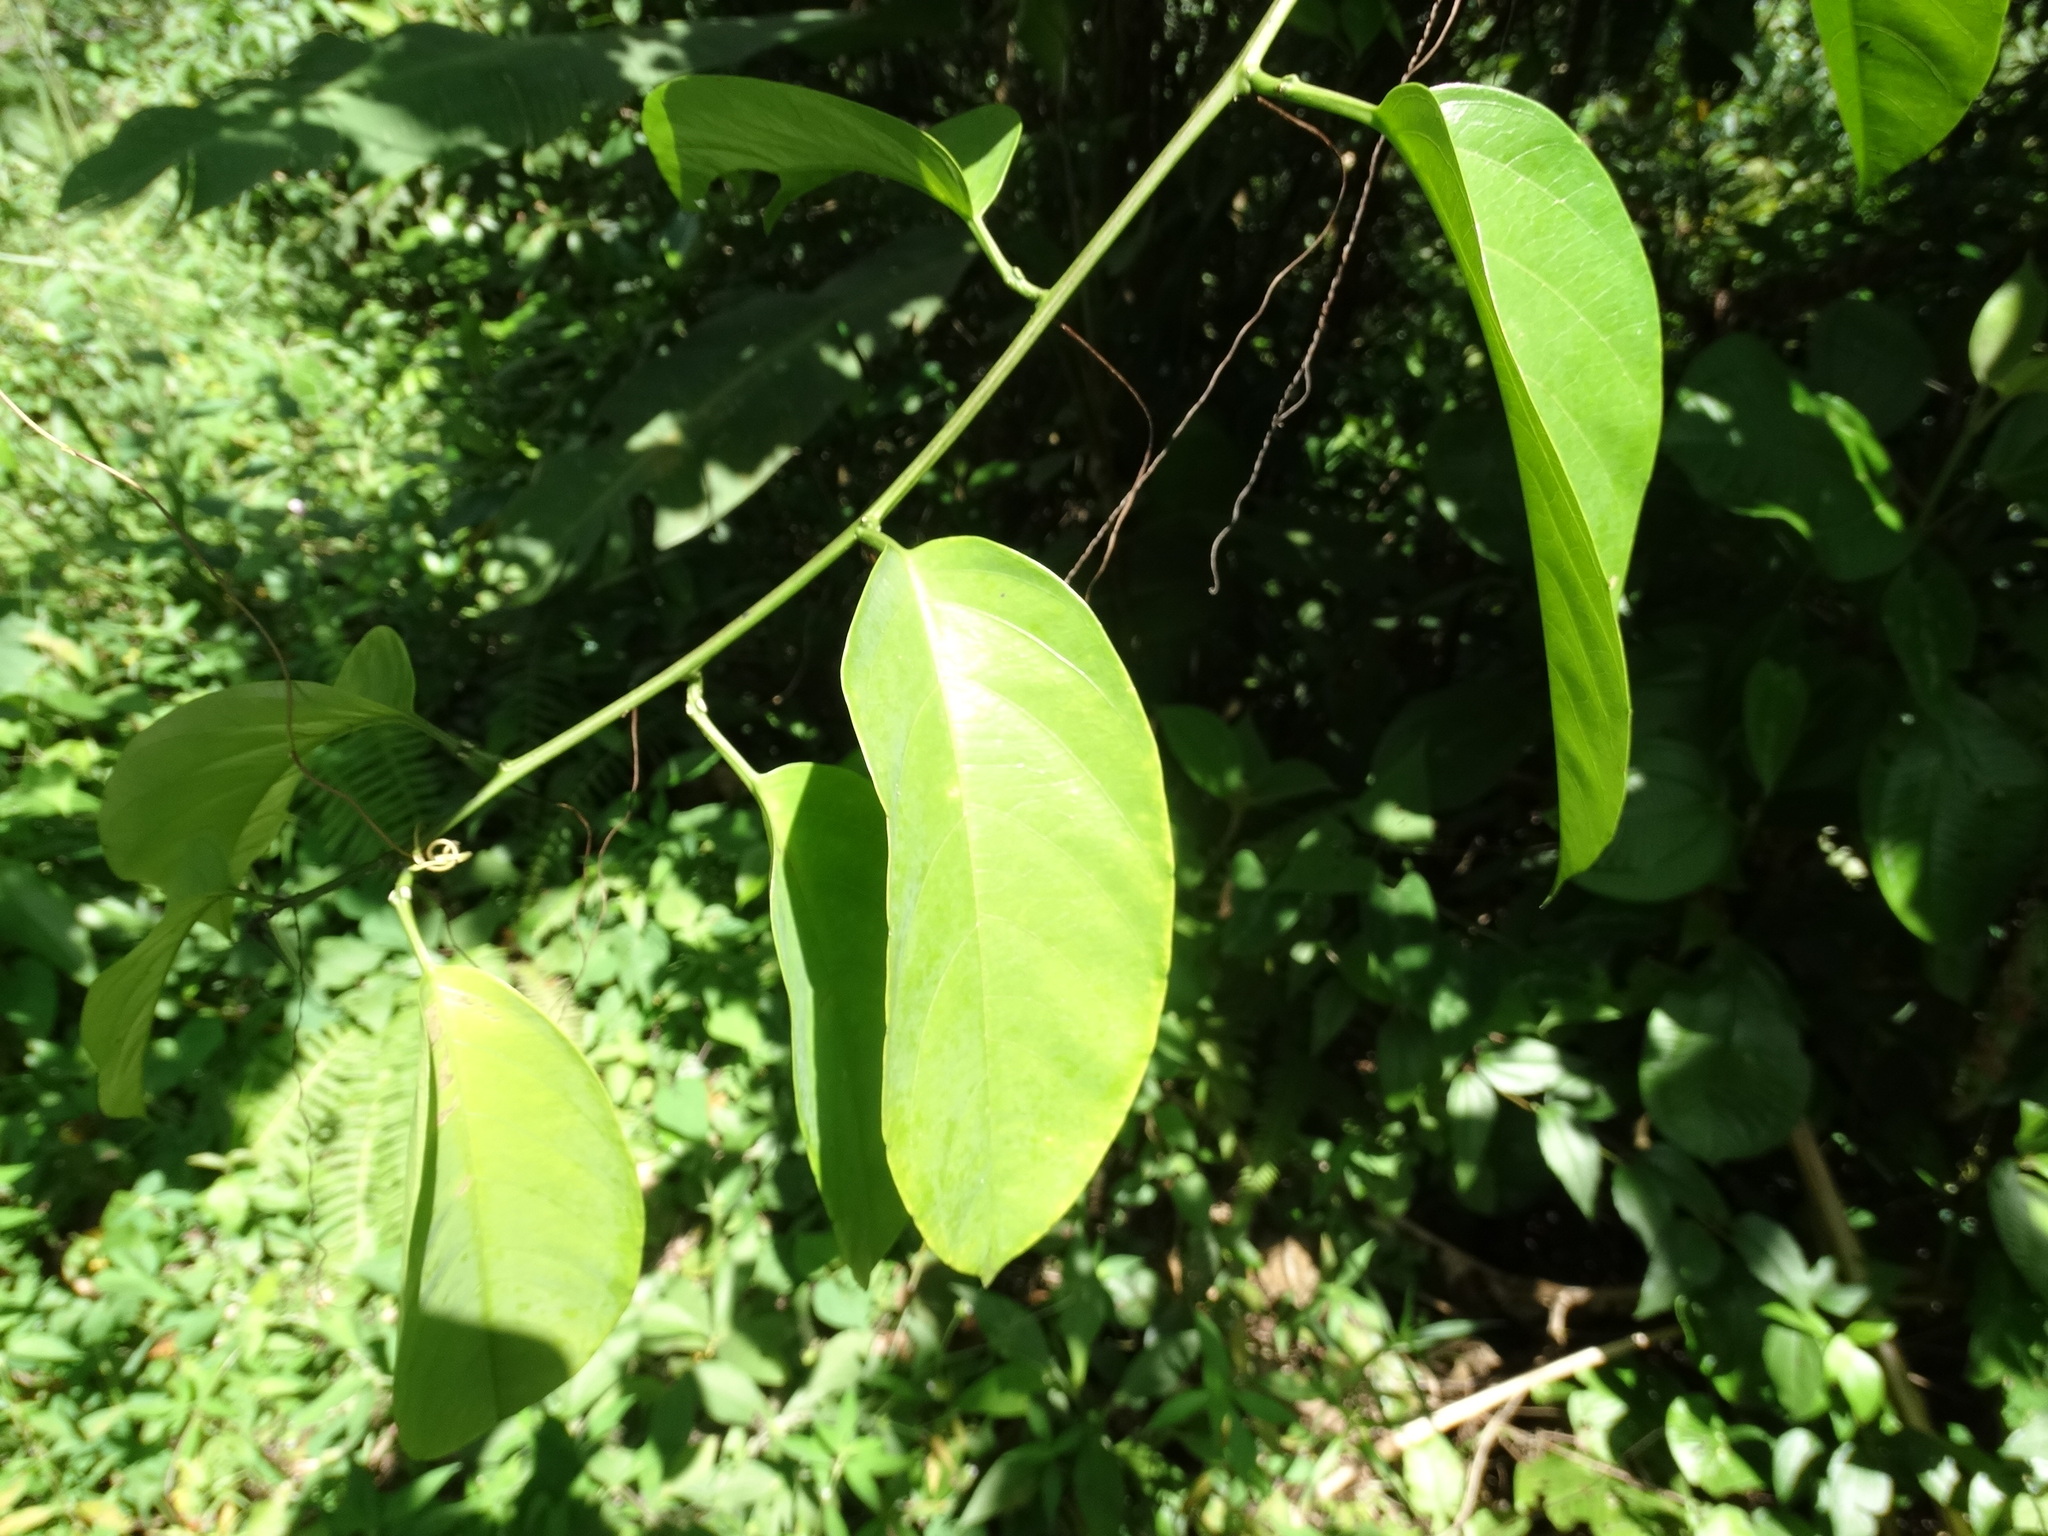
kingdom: Plantae
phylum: Tracheophyta
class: Magnoliopsida
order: Malpighiales
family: Passifloraceae
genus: Passiflora
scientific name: Passiflora ambigua
